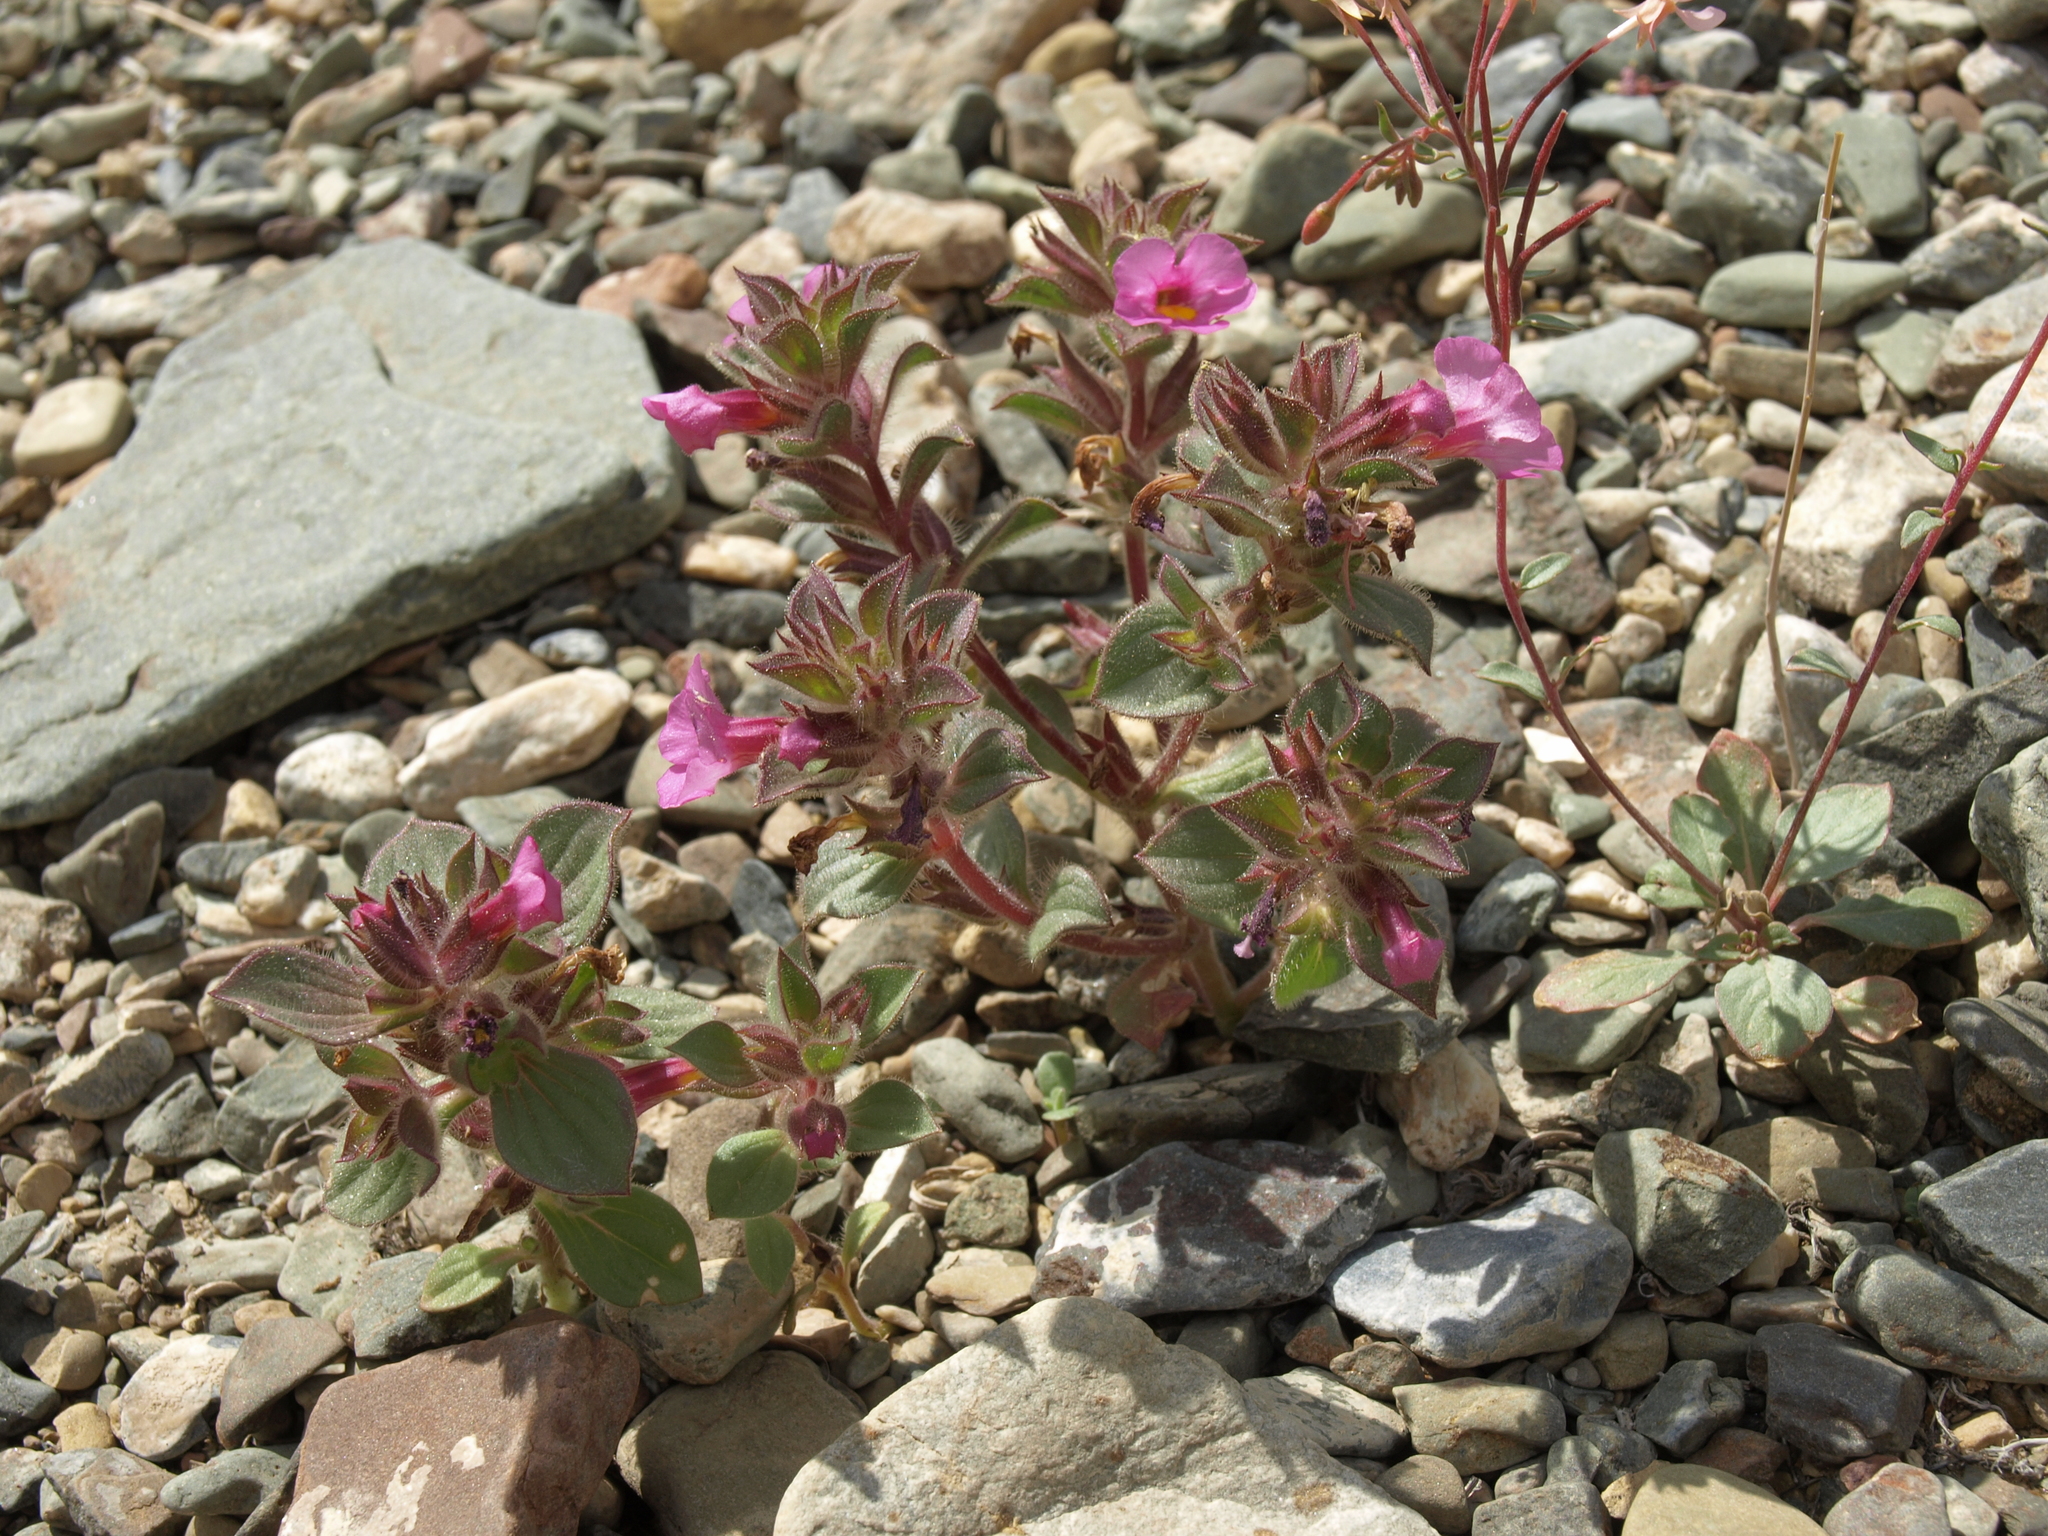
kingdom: Plantae
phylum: Tracheophyta
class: Magnoliopsida
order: Lamiales
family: Phrymaceae
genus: Diplacus
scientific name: Diplacus bigelovii
